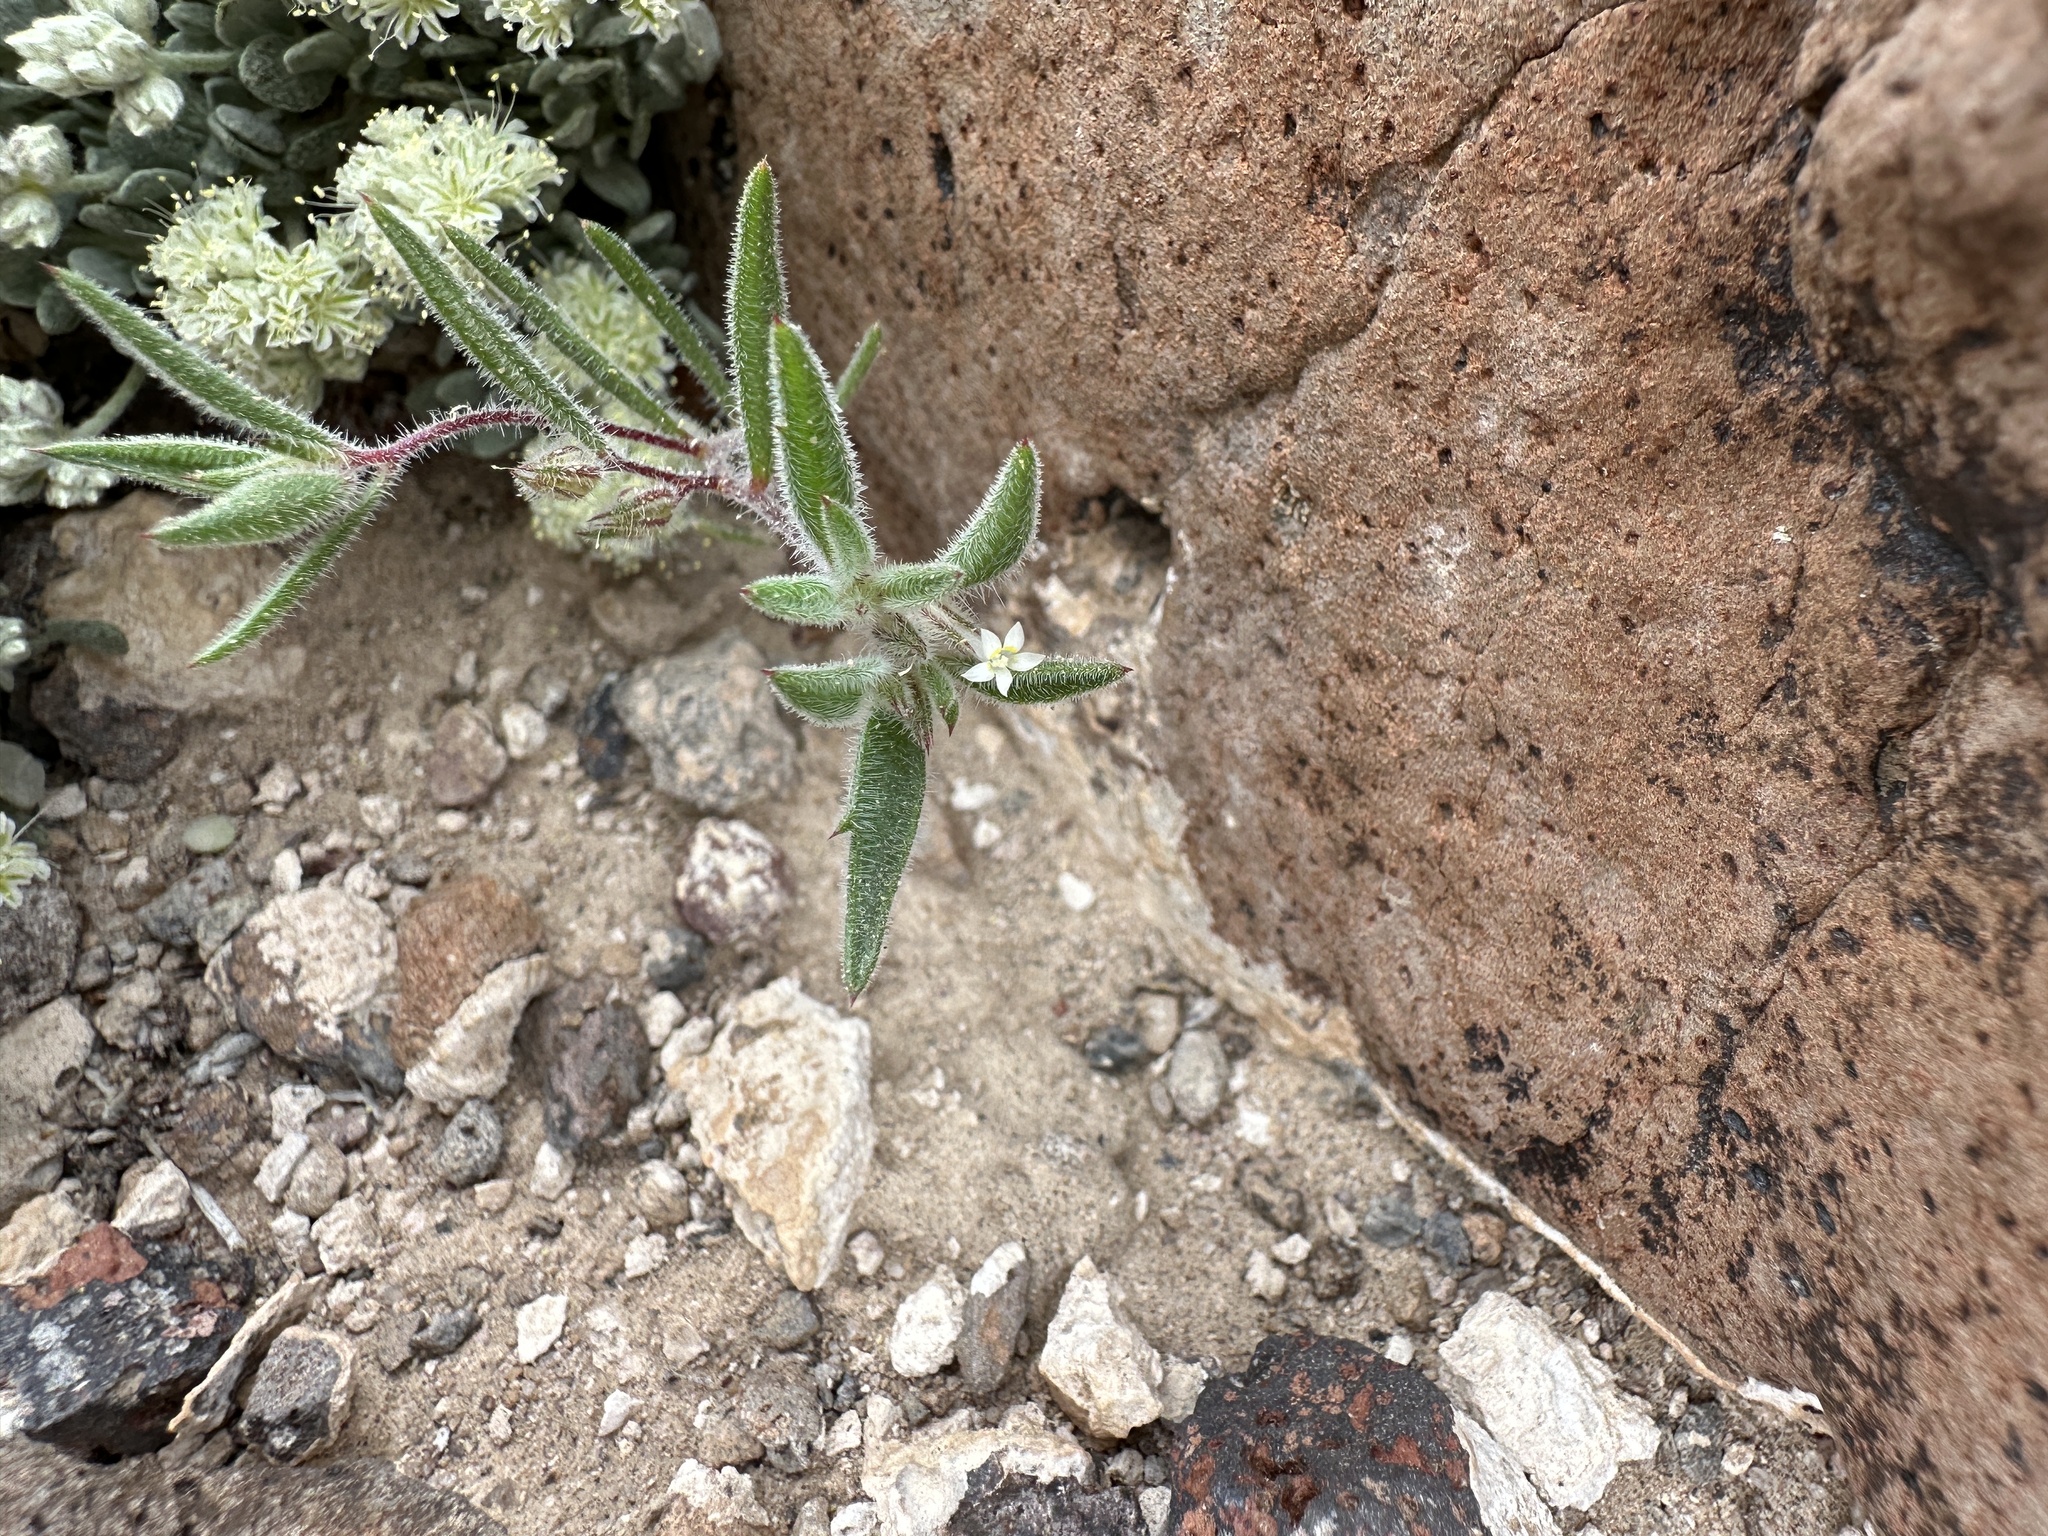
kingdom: Plantae
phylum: Tracheophyta
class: Magnoliopsida
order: Ericales
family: Polemoniaceae
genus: Loeseliastrum
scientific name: Loeseliastrum depressum
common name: Depressed ipomopsis
